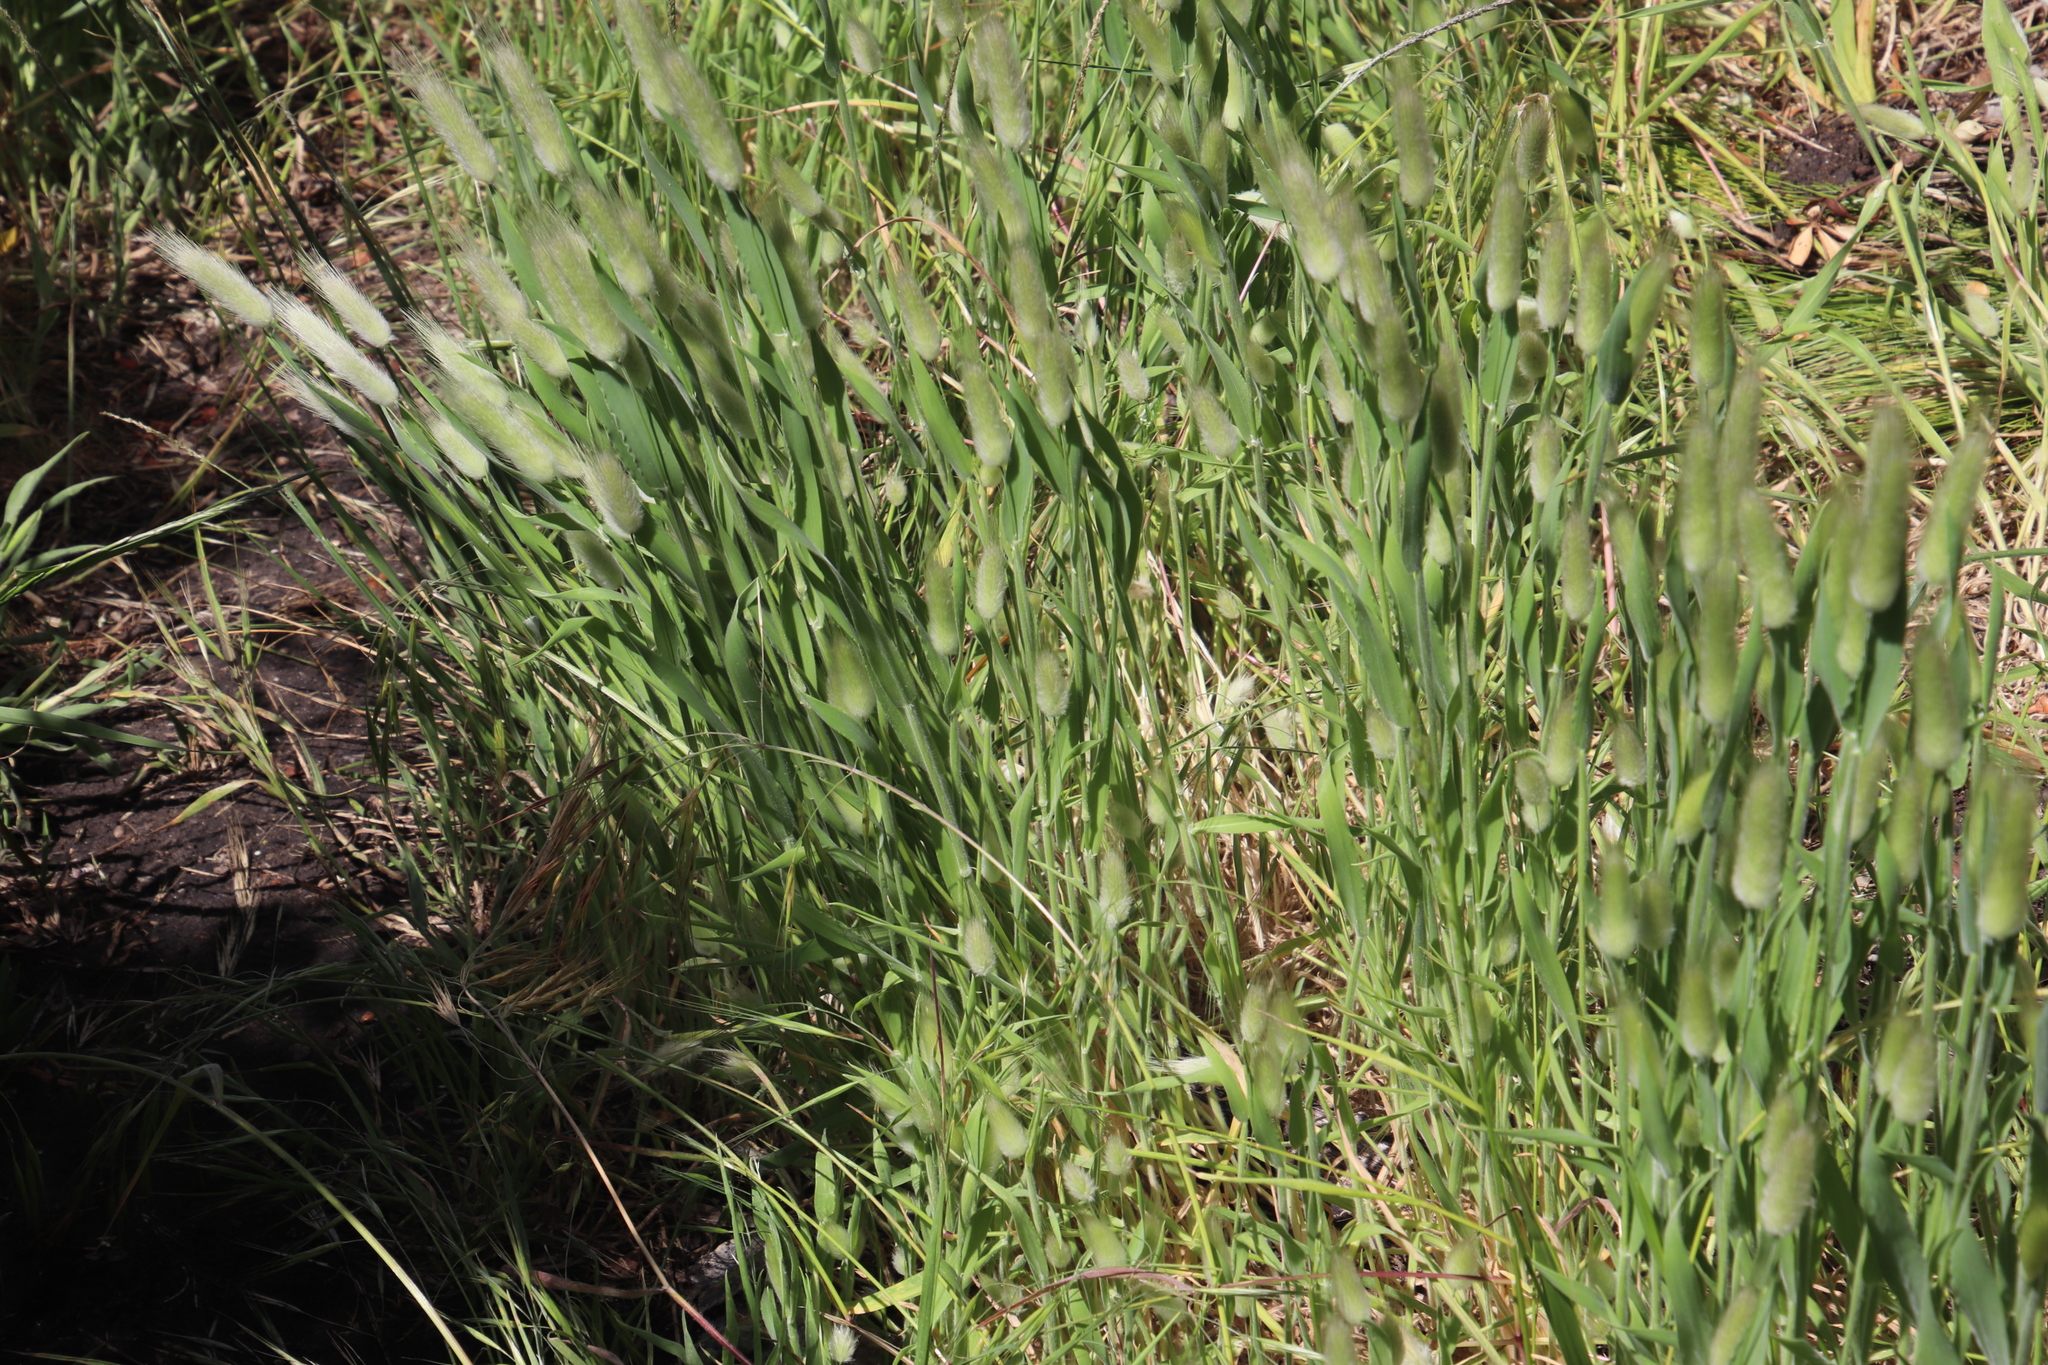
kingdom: Plantae
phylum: Tracheophyta
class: Liliopsida
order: Poales
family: Poaceae
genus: Lagurus
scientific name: Lagurus ovatus
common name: Hare's-tail
